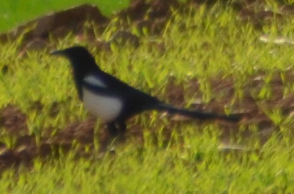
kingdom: Animalia
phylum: Chordata
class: Aves
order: Passeriformes
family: Corvidae
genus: Pica
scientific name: Pica pica
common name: Eurasian magpie
